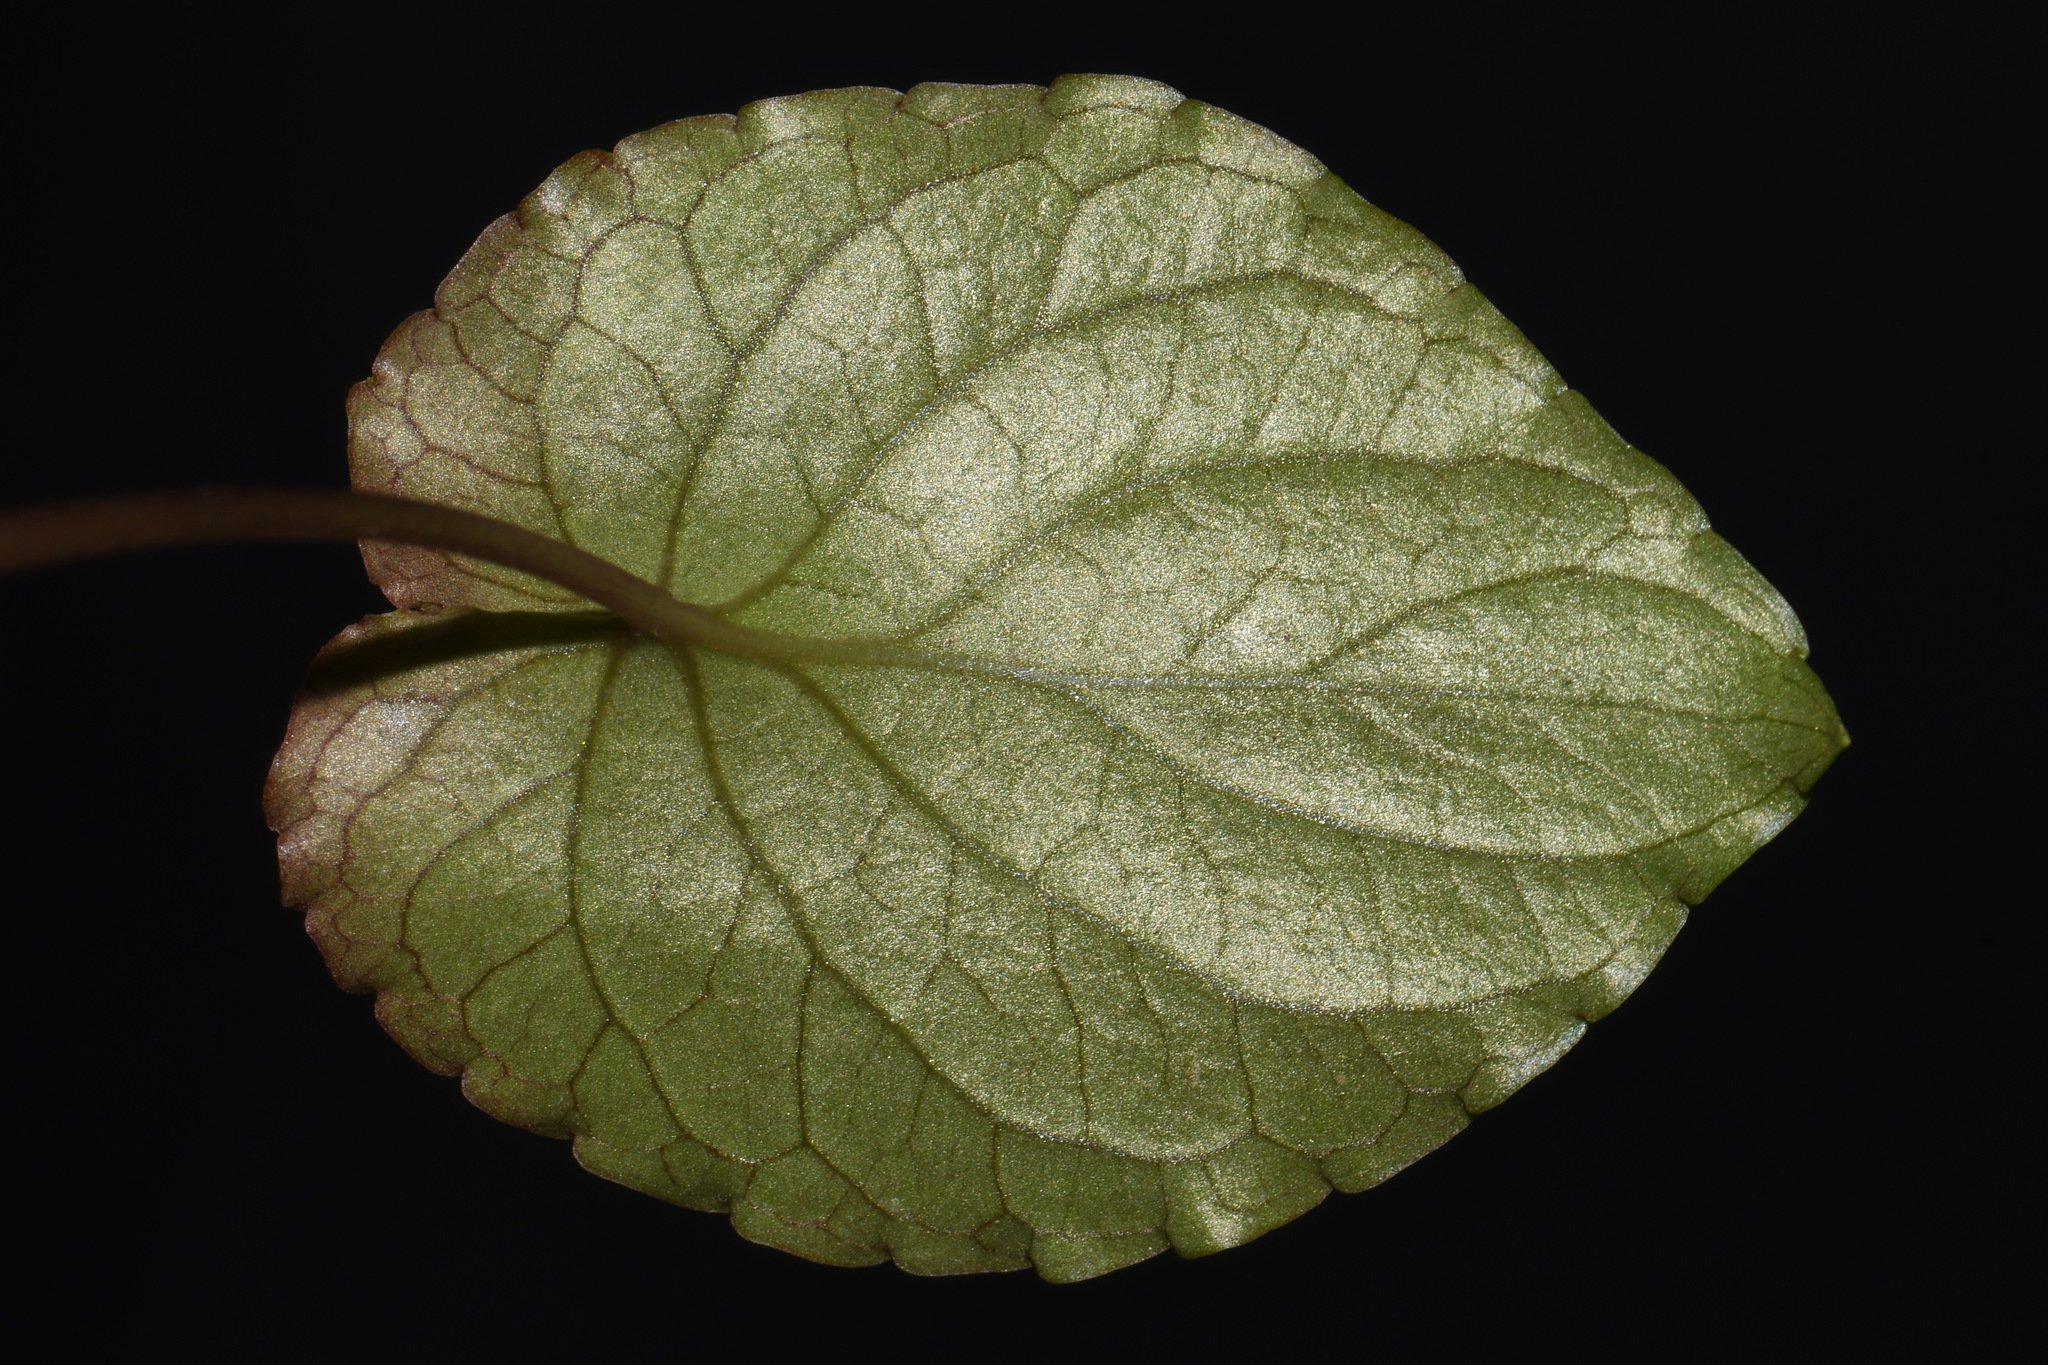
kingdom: Plantae
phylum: Tracheophyta
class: Magnoliopsida
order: Malpighiales
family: Violaceae
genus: Viola
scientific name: Viola blanda
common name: Sweet white violet
